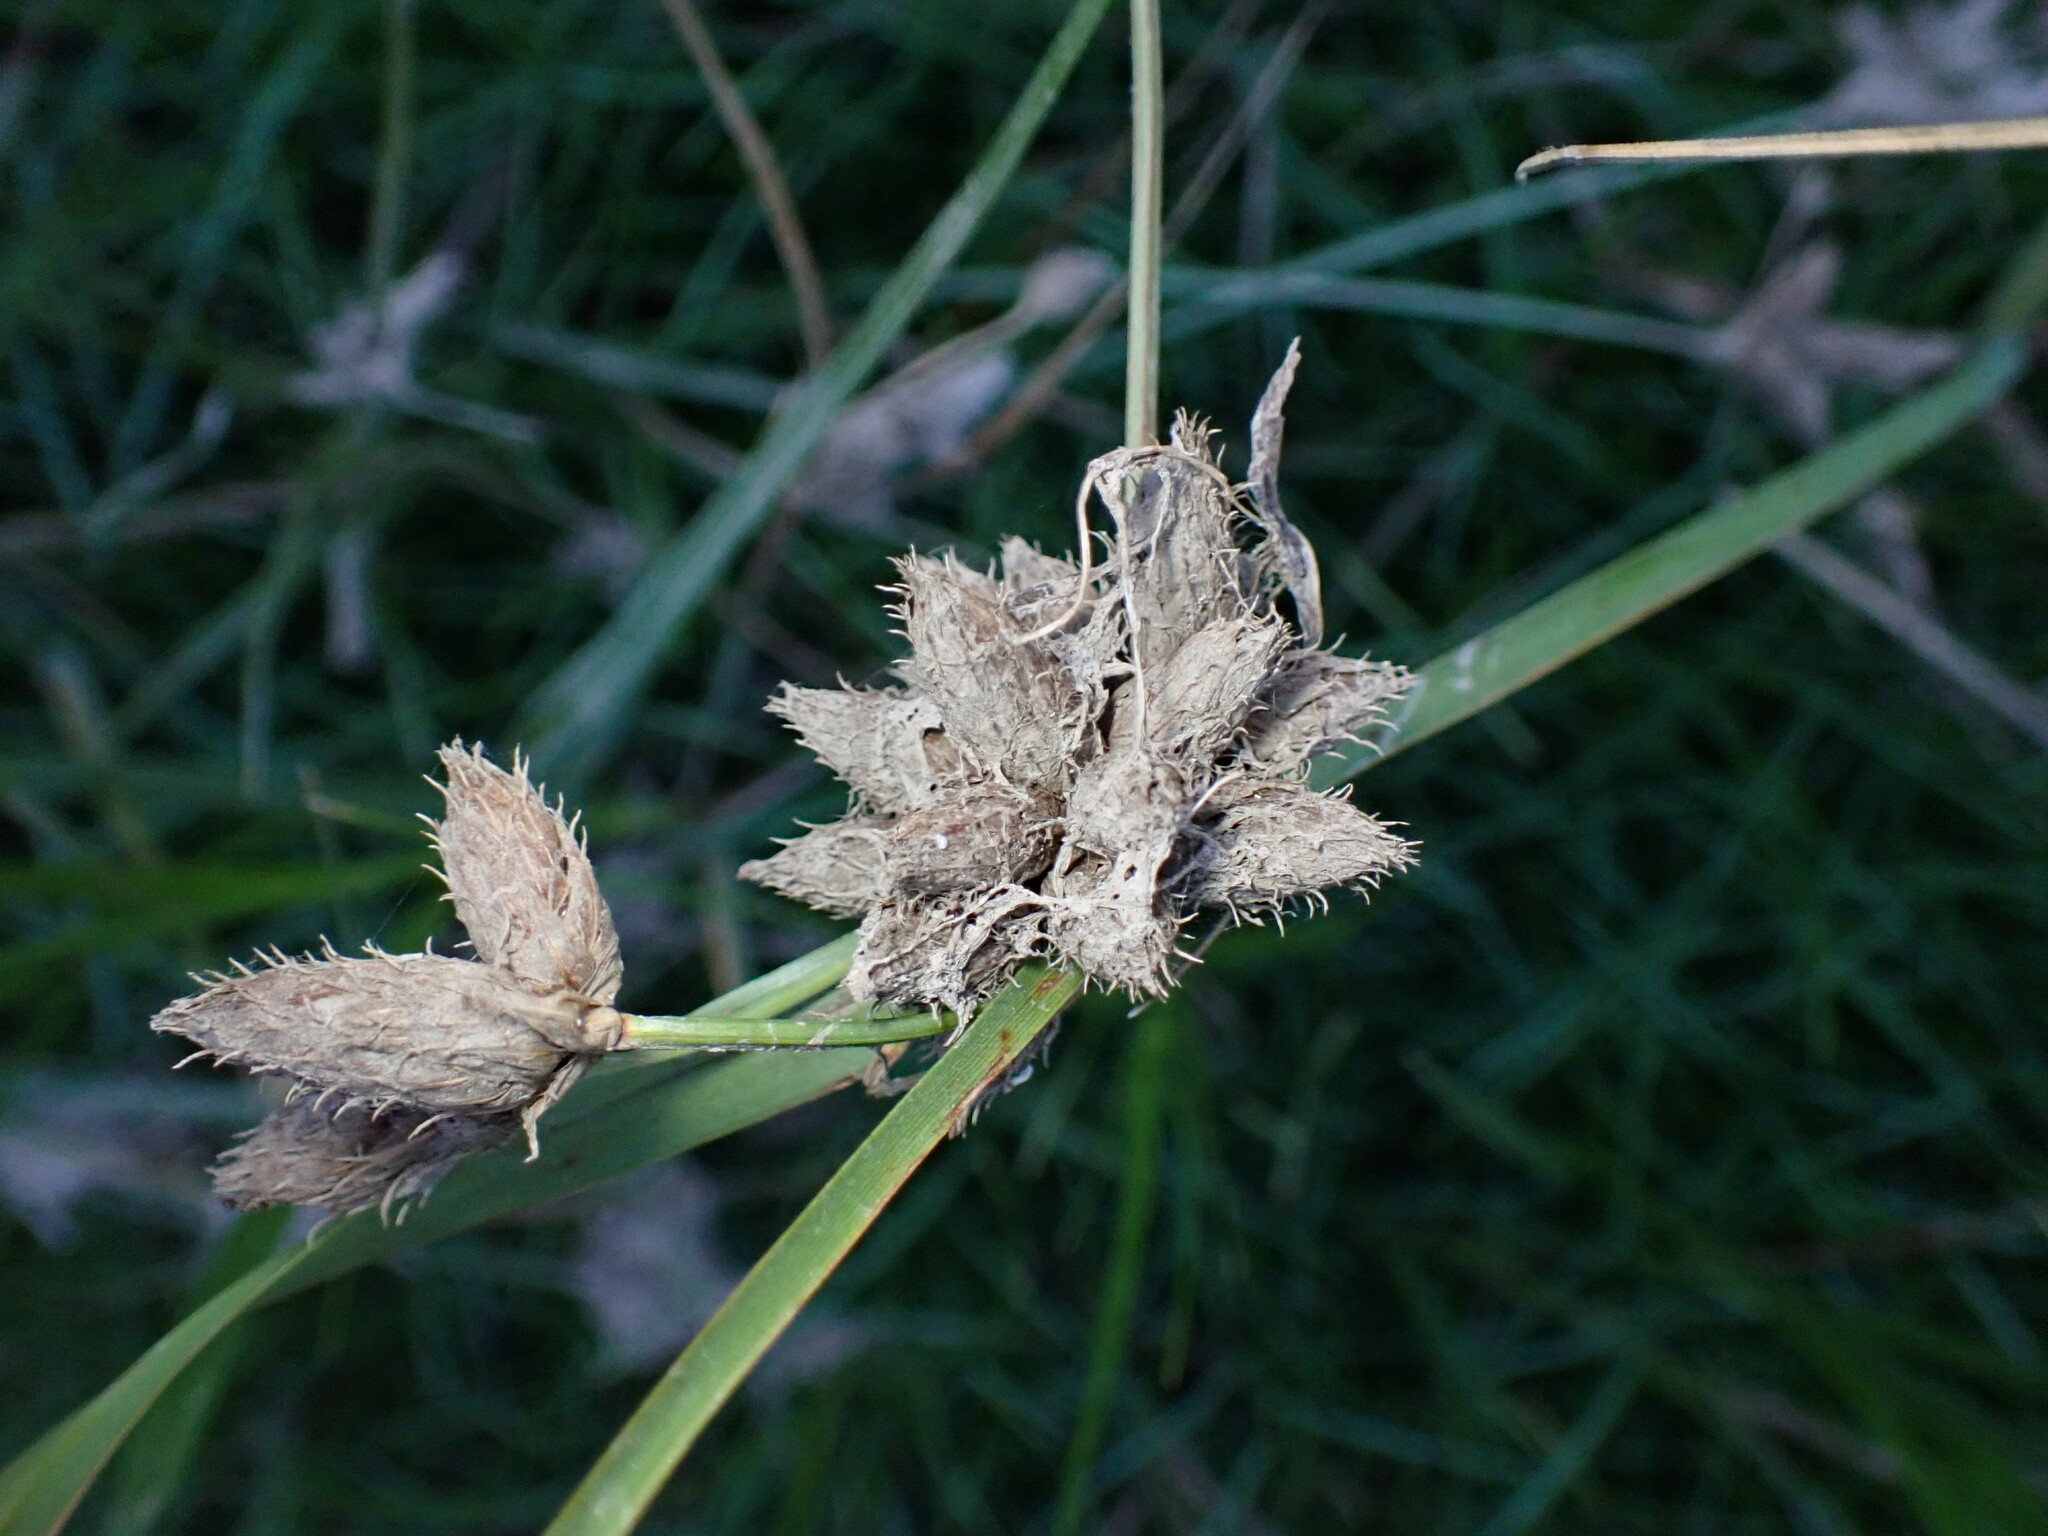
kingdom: Plantae
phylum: Tracheophyta
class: Liliopsida
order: Poales
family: Cyperaceae
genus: Bolboschoenus
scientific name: Bolboschoenus maritimus
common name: Sea club-rush
